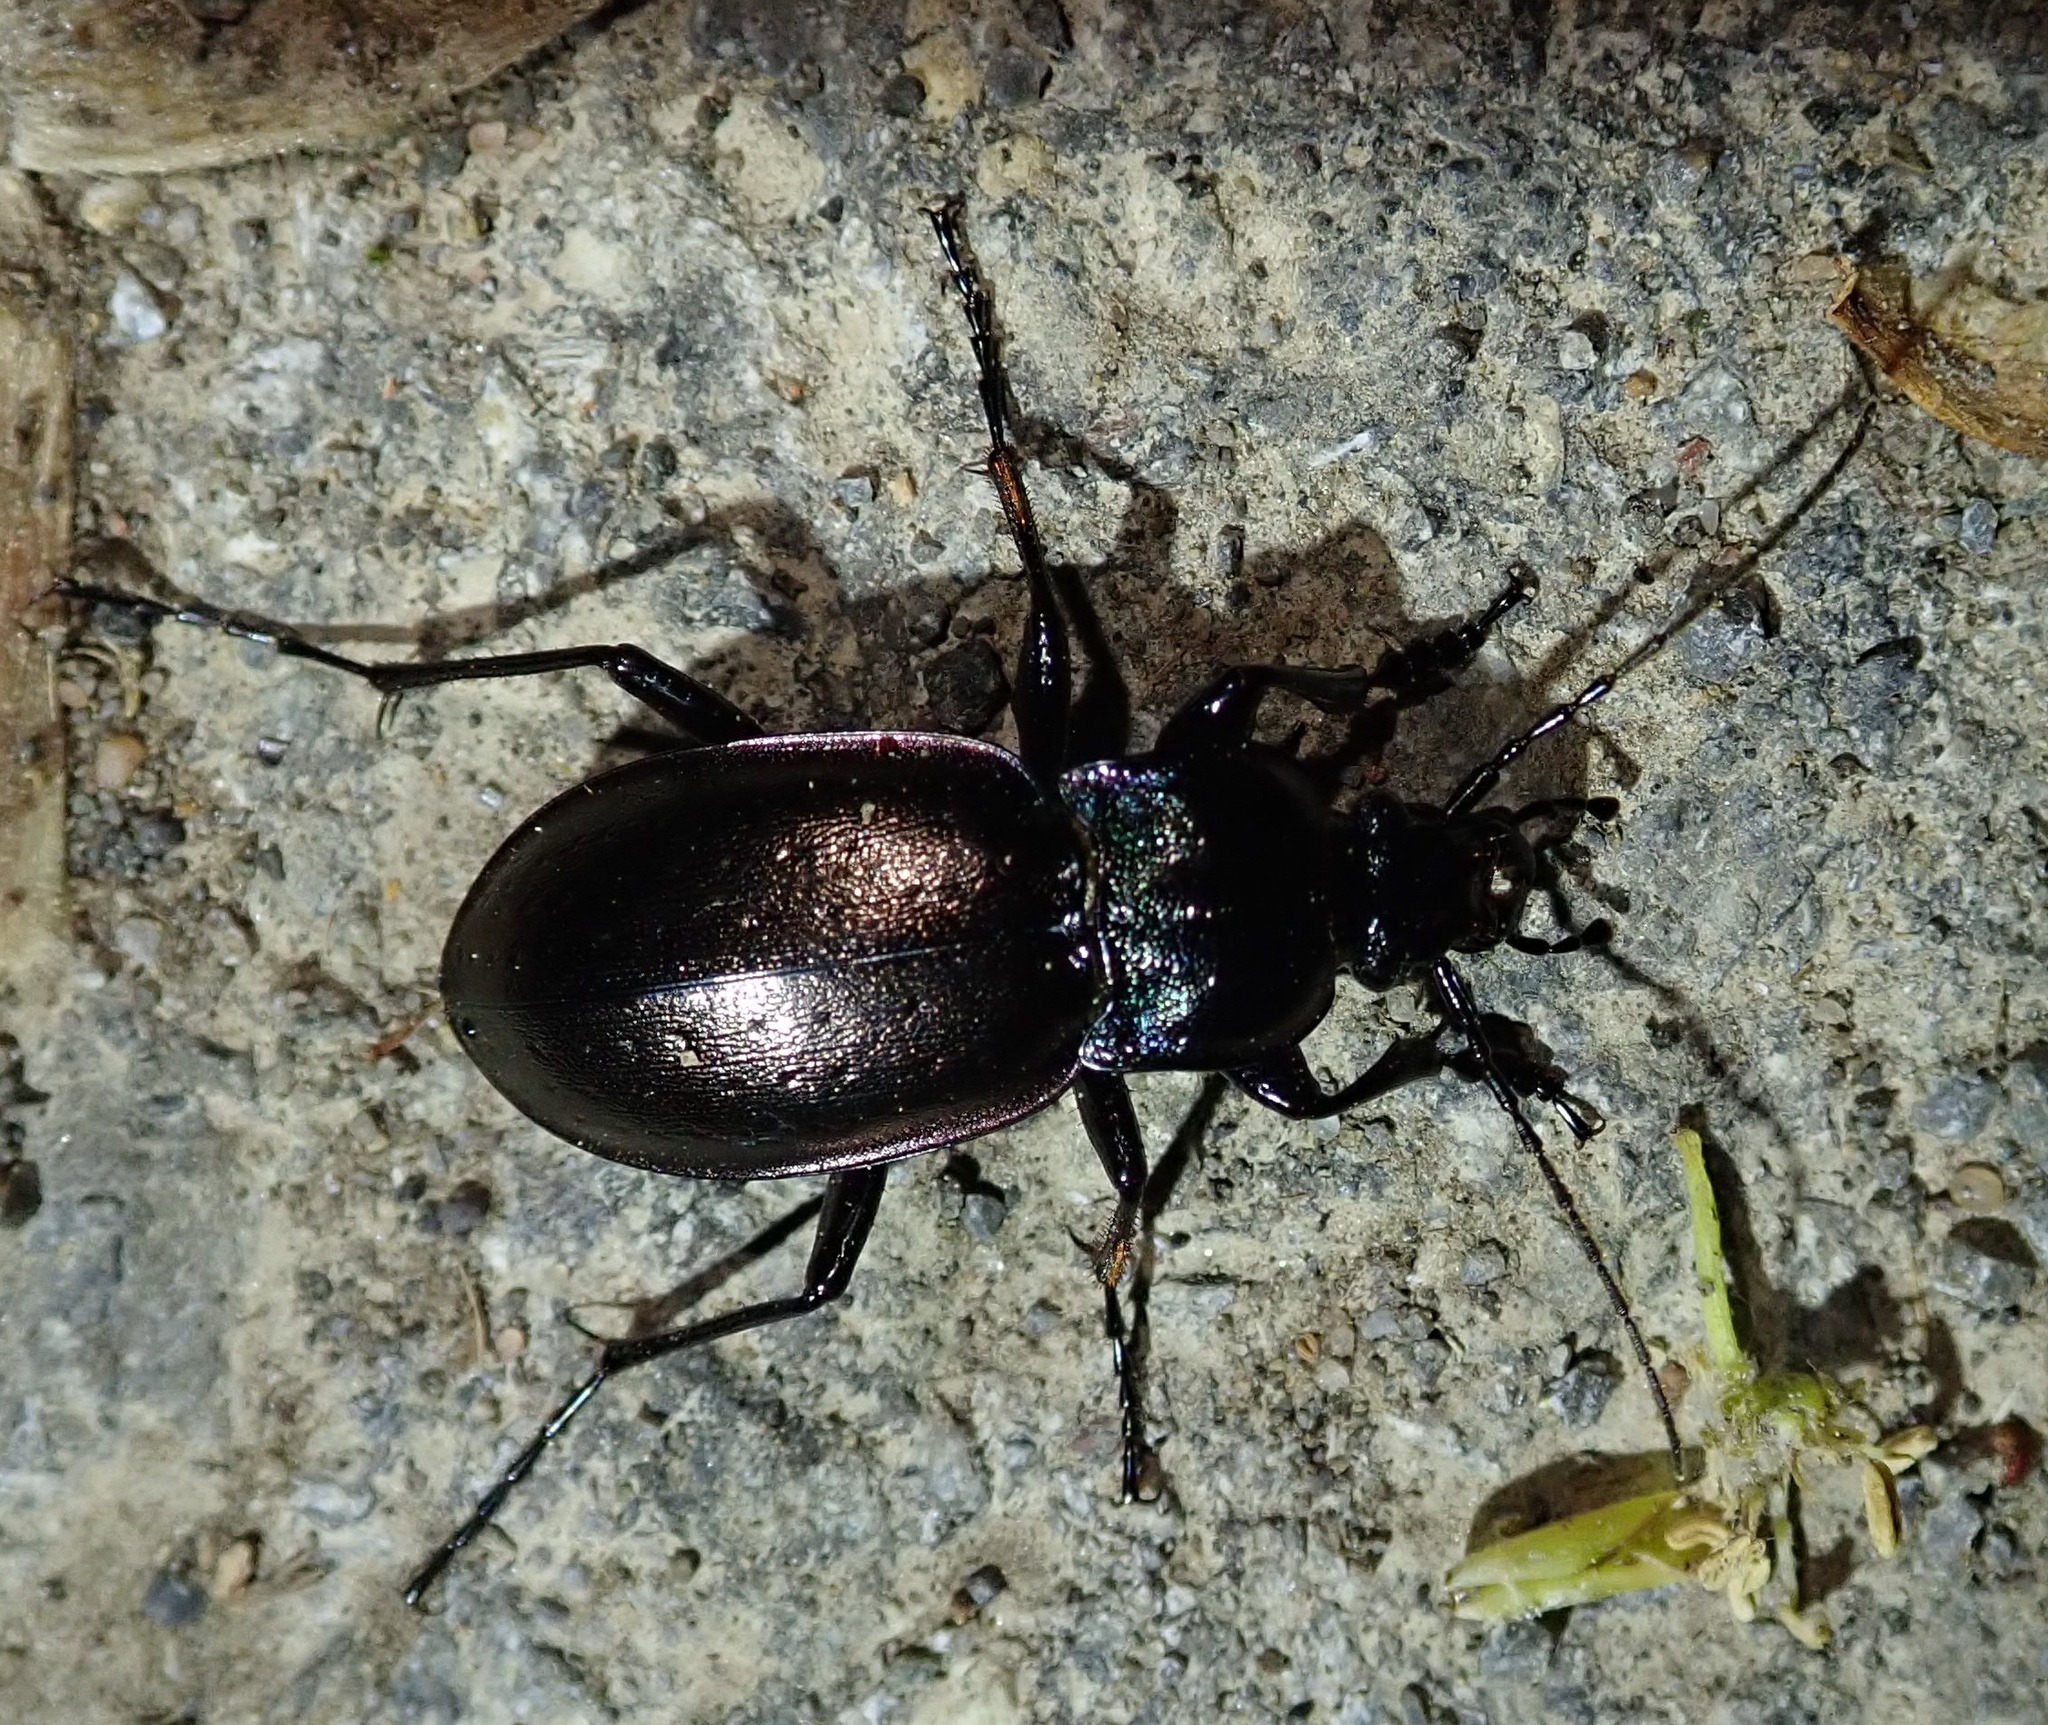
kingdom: Animalia
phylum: Arthropoda
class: Insecta
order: Coleoptera
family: Carabidae
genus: Carabus
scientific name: Carabus nemoralis
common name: European ground beetle
